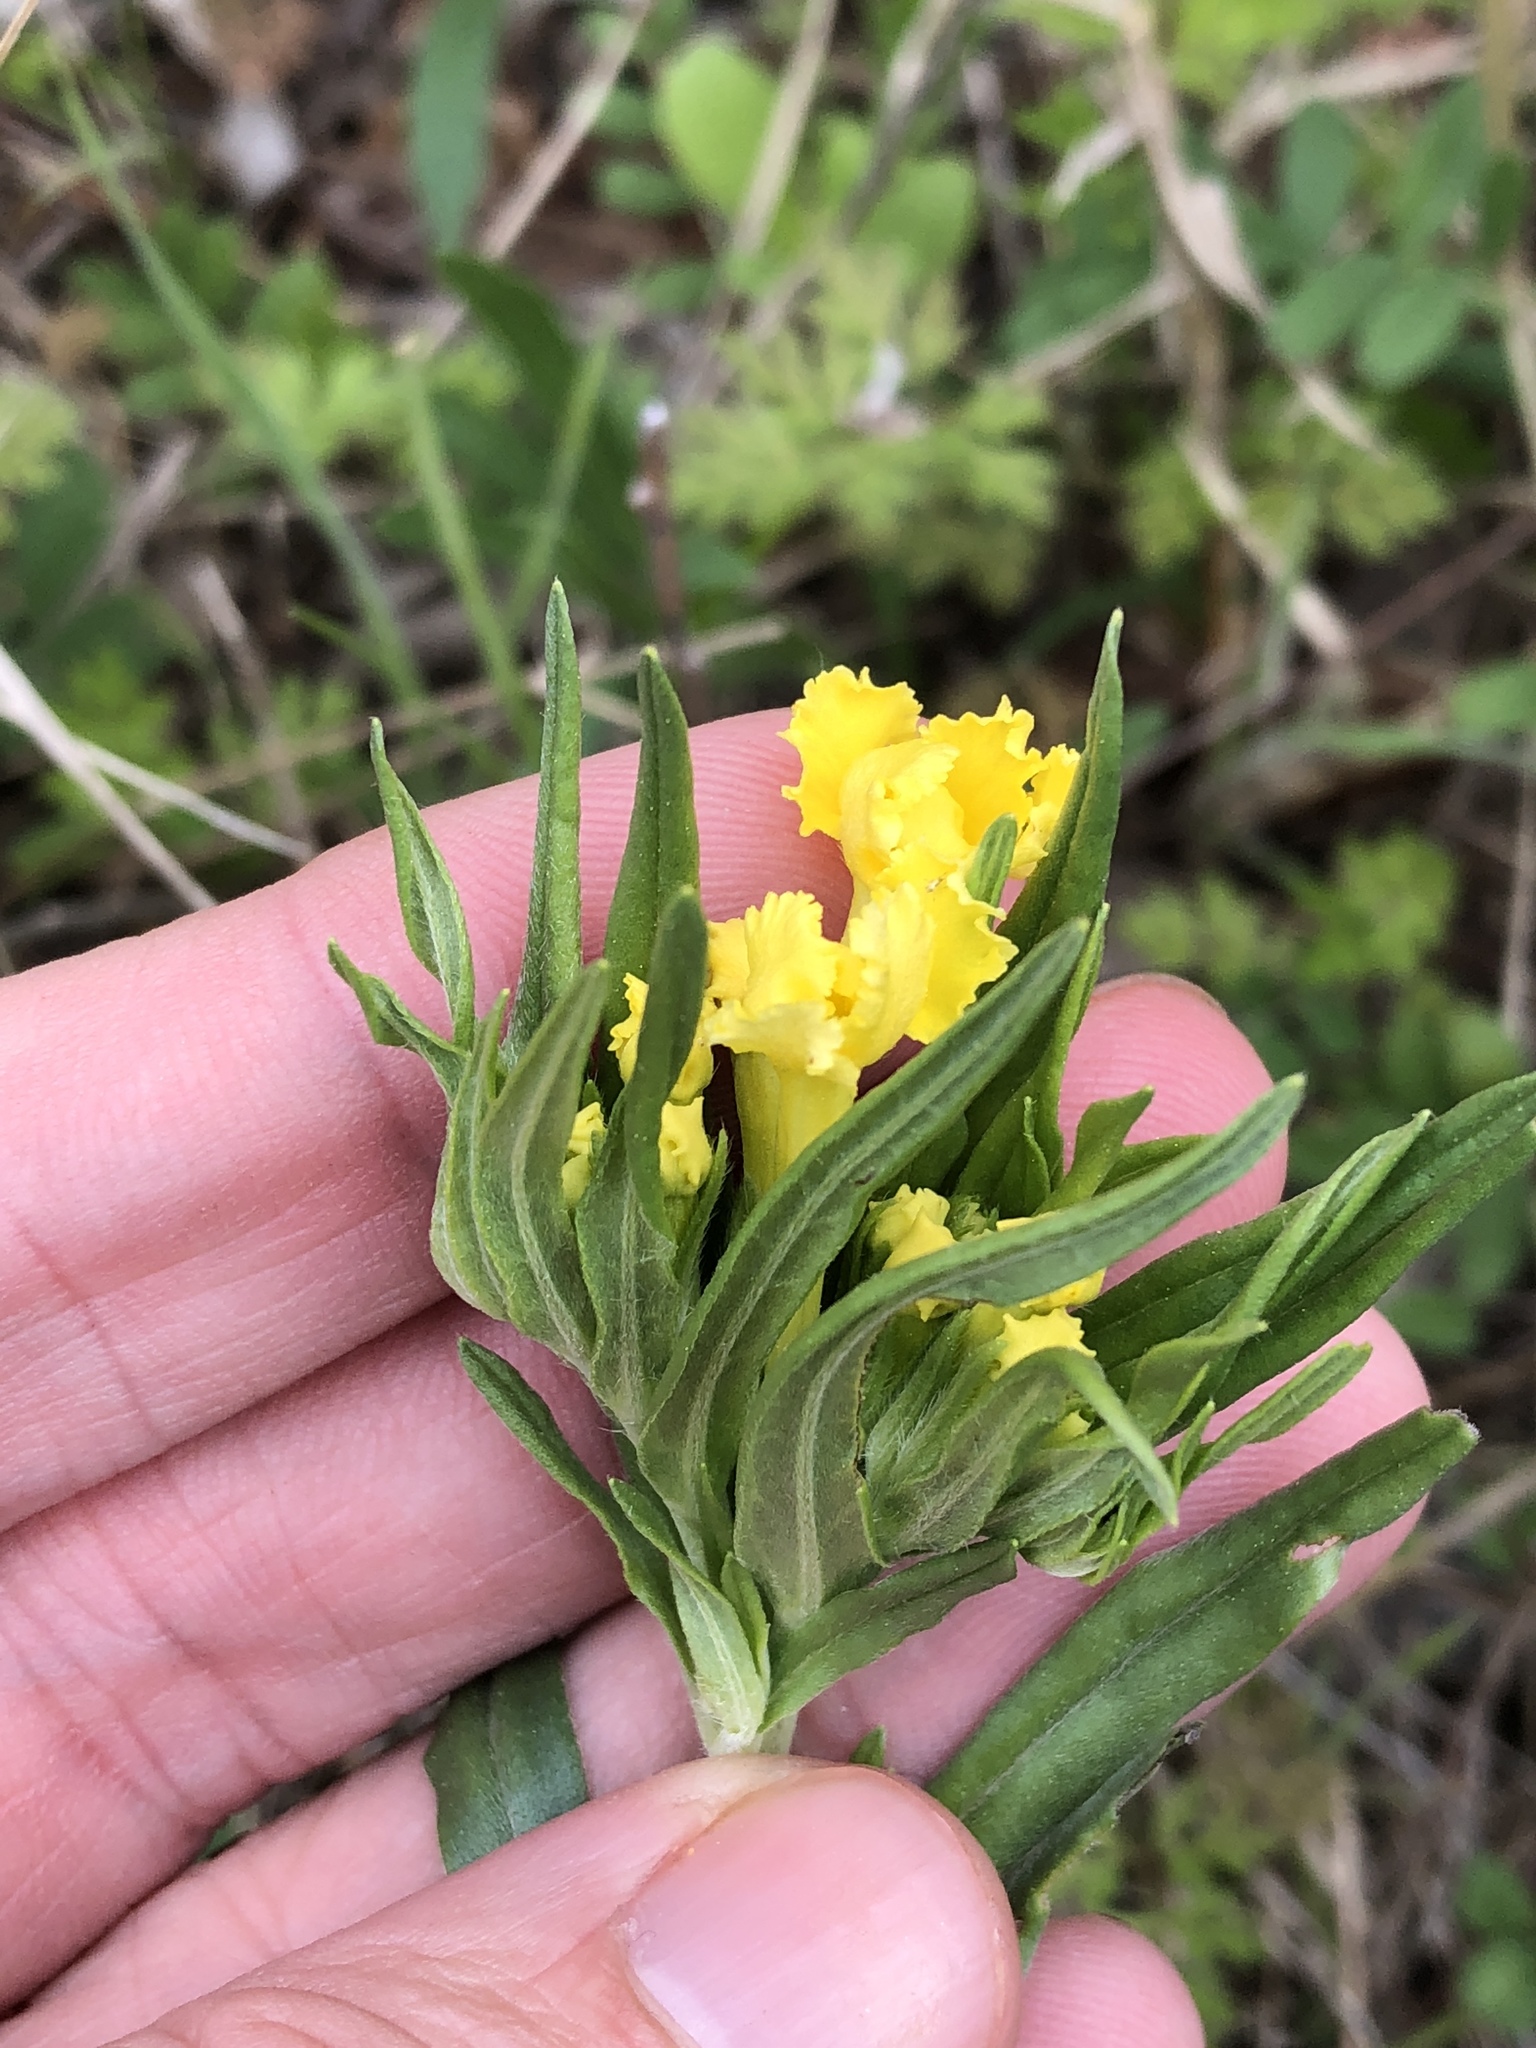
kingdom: Plantae
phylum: Tracheophyta
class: Magnoliopsida
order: Boraginales
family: Boraginaceae
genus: Lithospermum
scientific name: Lithospermum incisum
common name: Fringed gromwell
